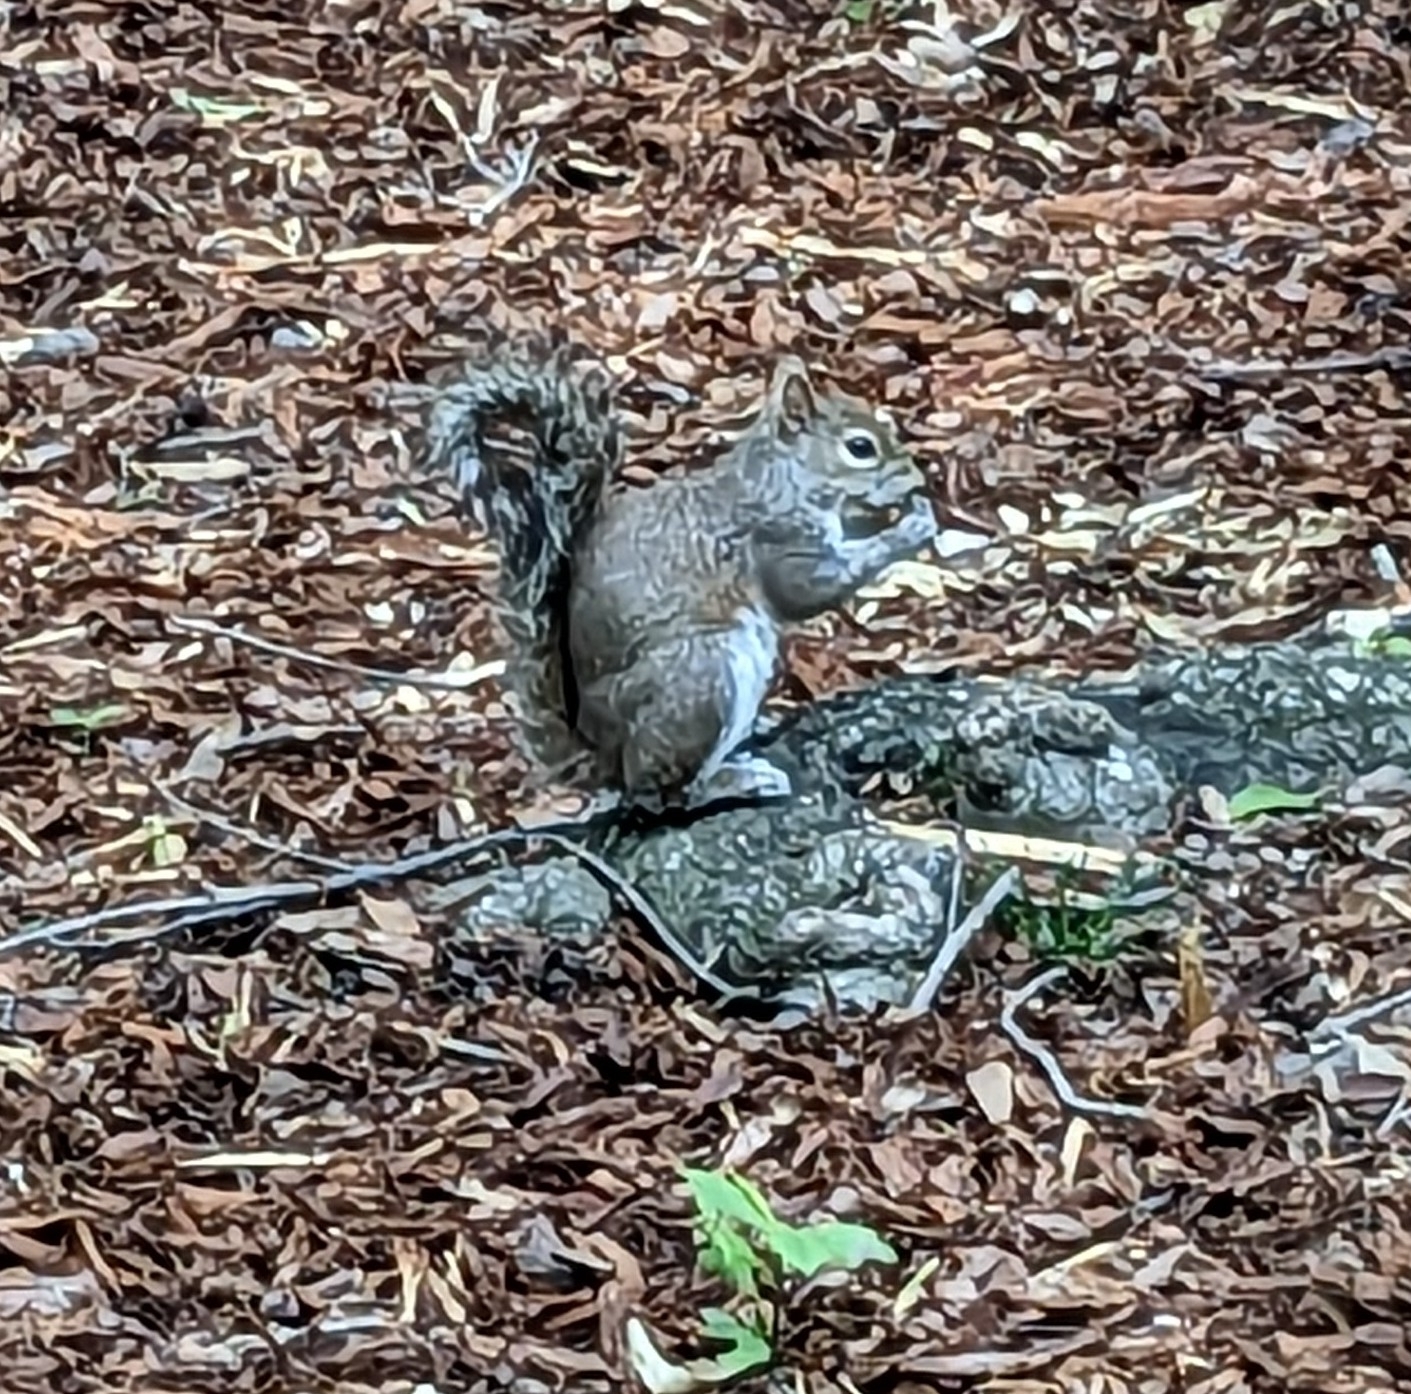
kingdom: Animalia
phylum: Chordata
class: Mammalia
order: Rodentia
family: Sciuridae
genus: Sciurus
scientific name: Sciurus carolinensis
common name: Eastern gray squirrel
